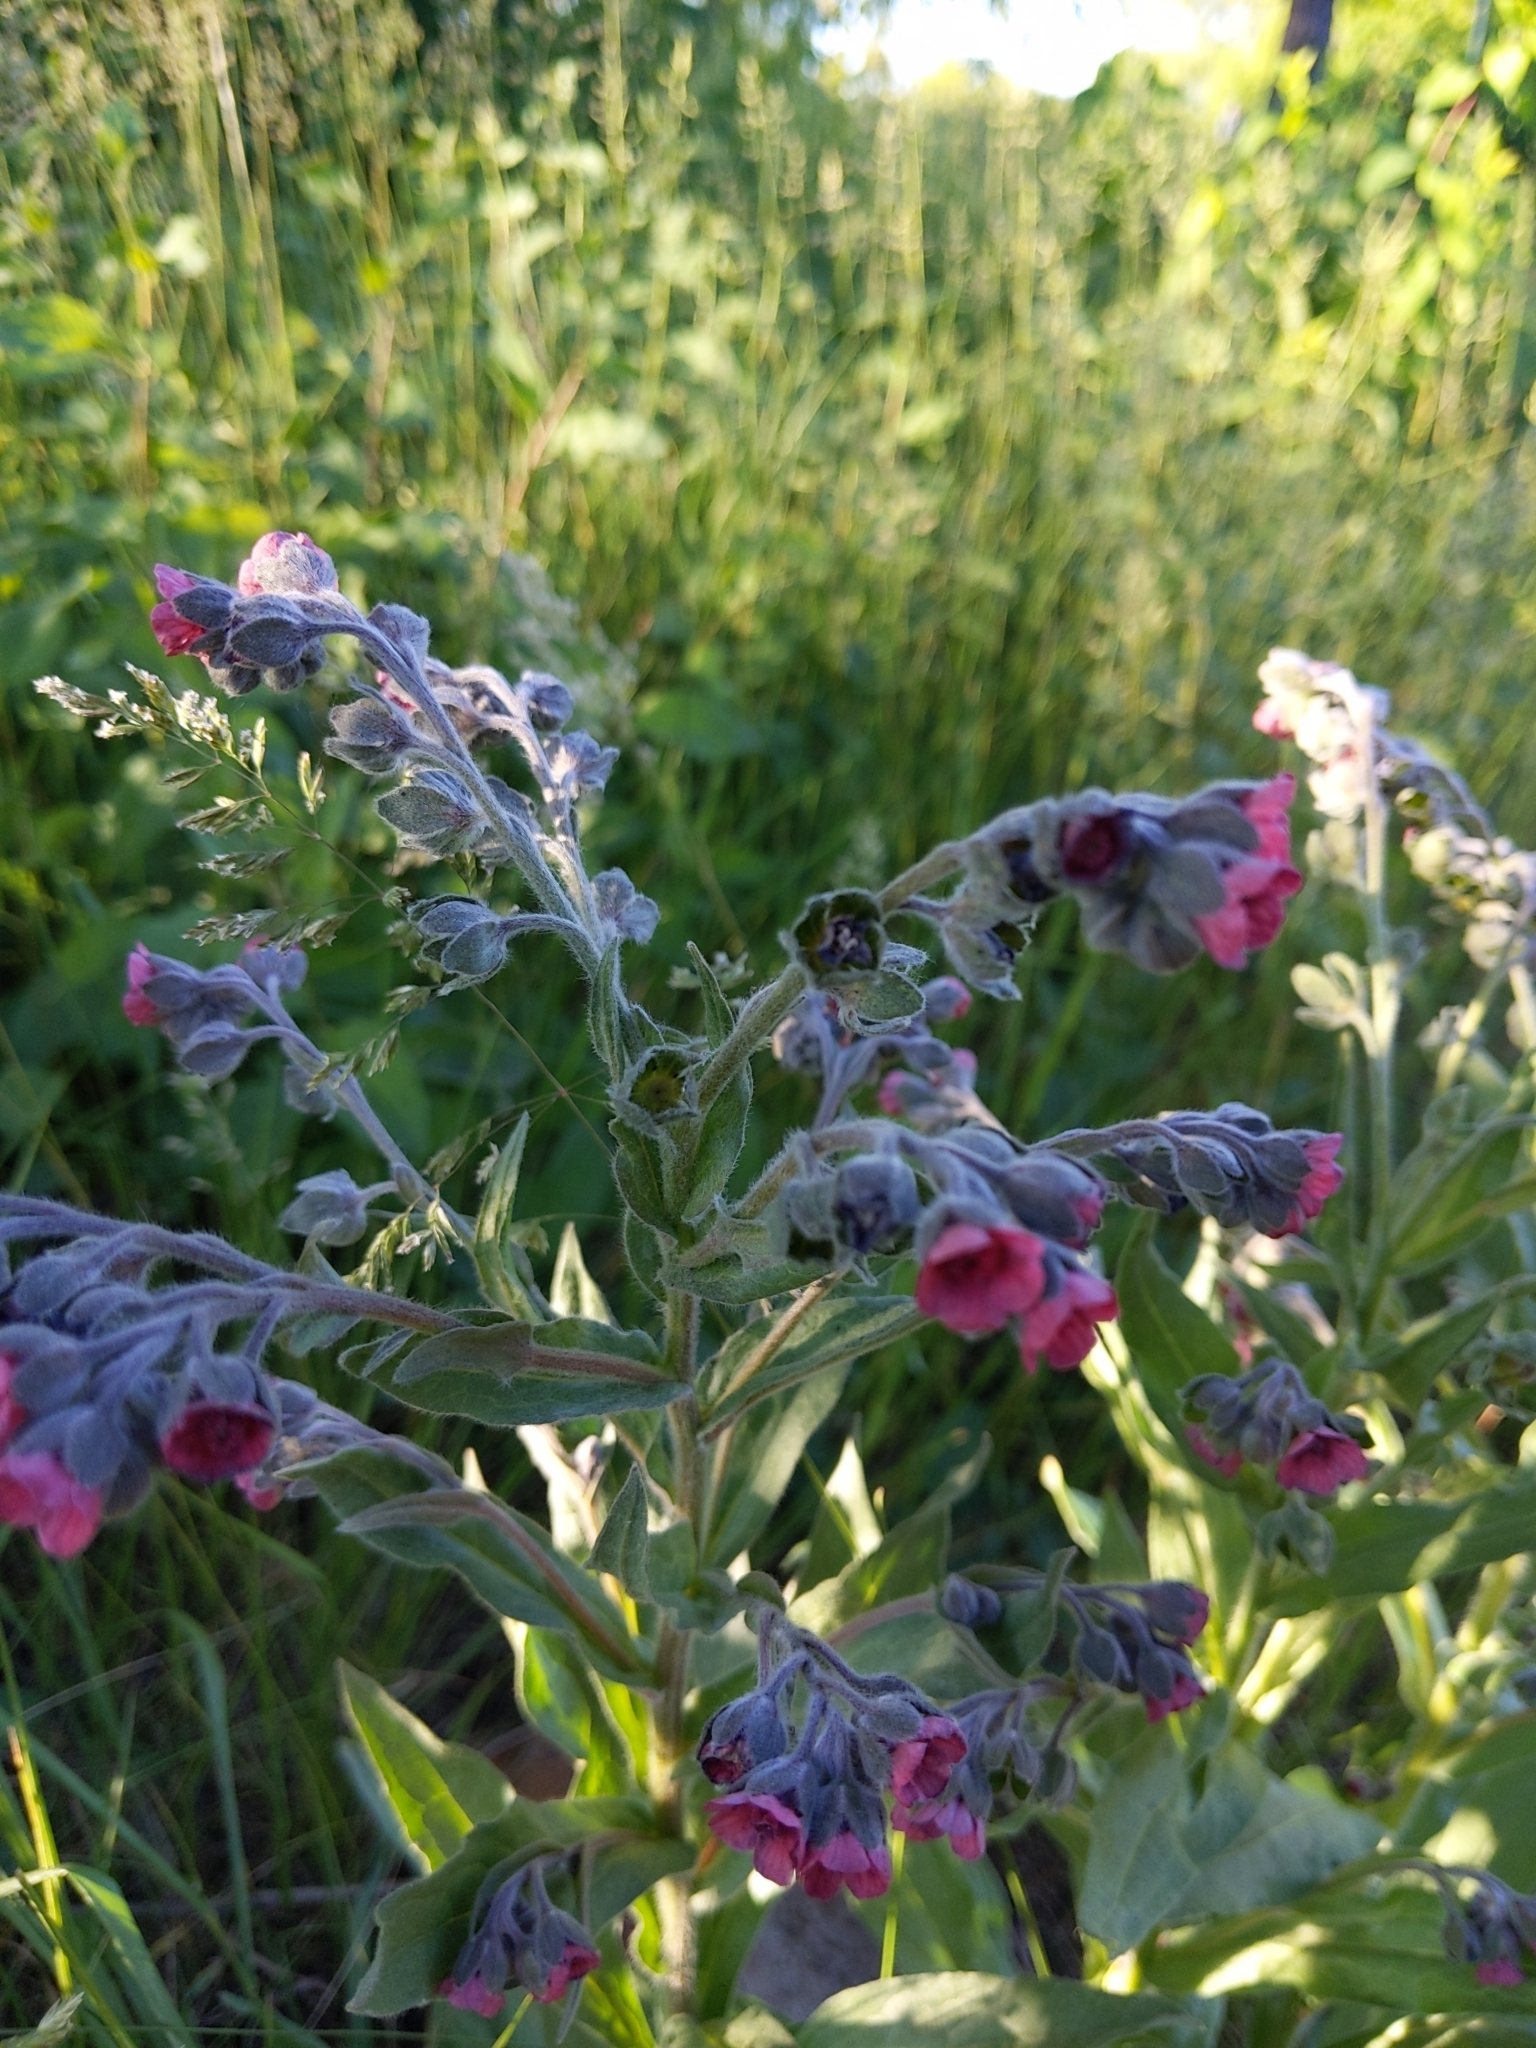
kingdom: Plantae
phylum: Tracheophyta
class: Magnoliopsida
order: Boraginales
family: Boraginaceae
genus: Cynoglossum
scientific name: Cynoglossum officinale
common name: Hound's-tongue
